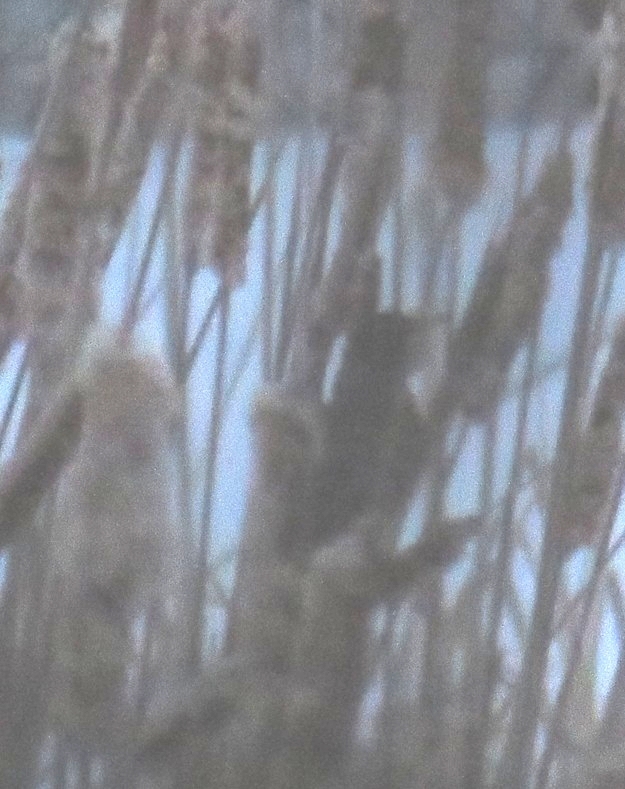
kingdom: Animalia
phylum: Chordata
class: Aves
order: Passeriformes
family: Turdidae
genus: Turdus
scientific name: Turdus migratorius
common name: American robin
